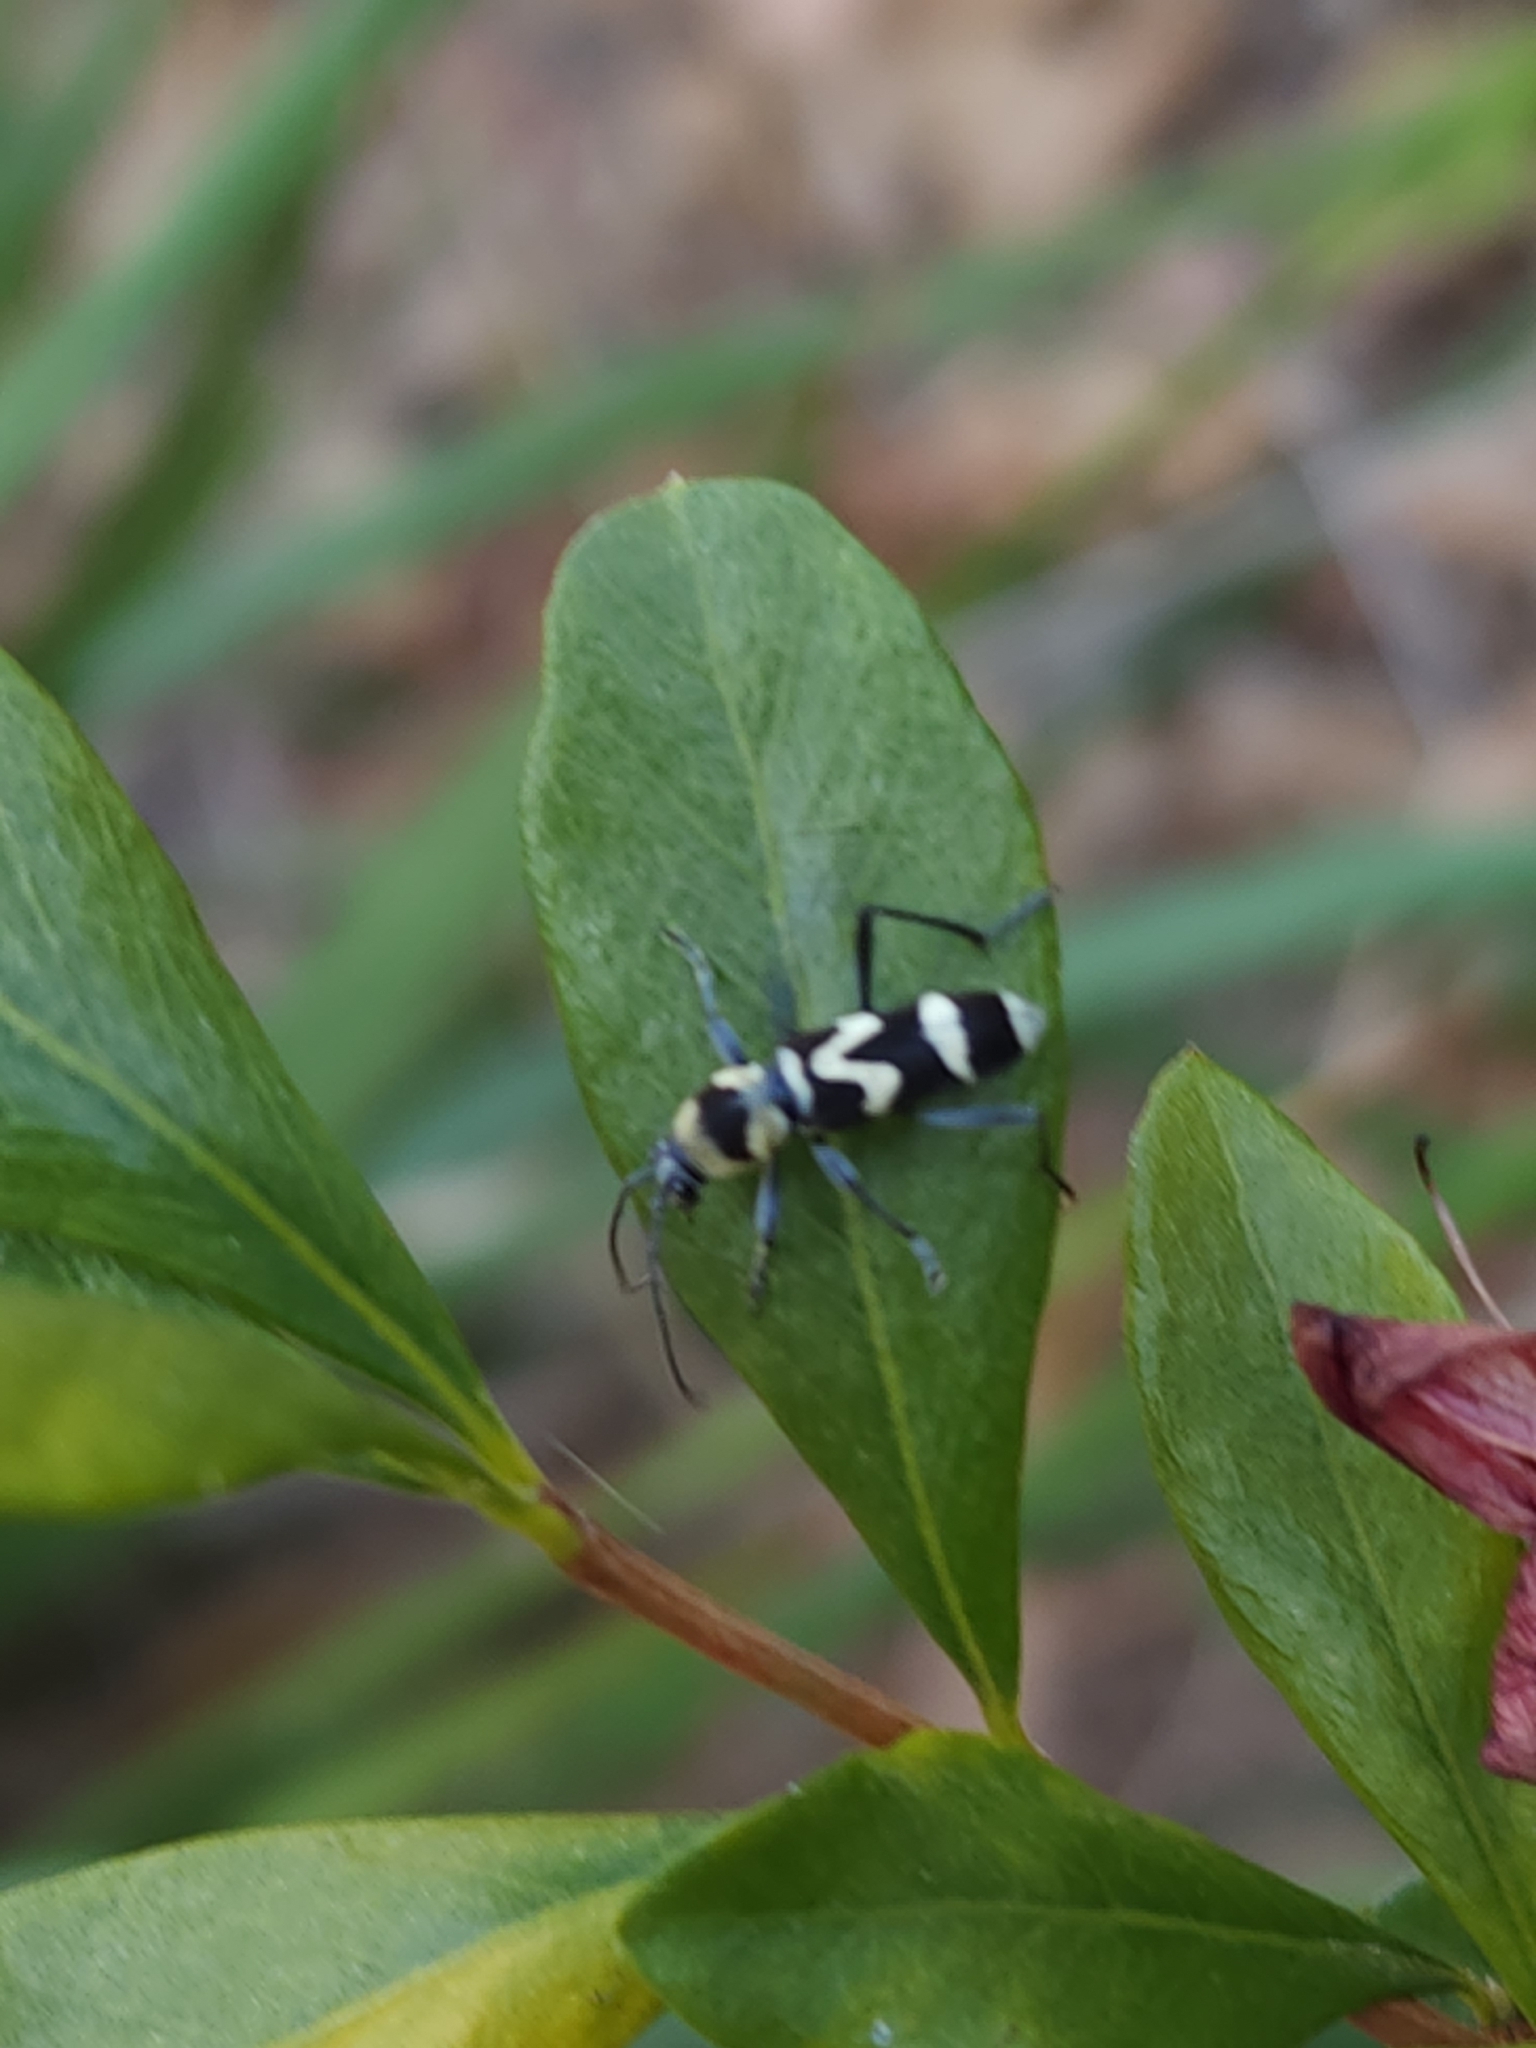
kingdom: Animalia
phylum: Arthropoda
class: Insecta
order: Coleoptera
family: Cerambycidae
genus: Clytus
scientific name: Clytus curtisi
